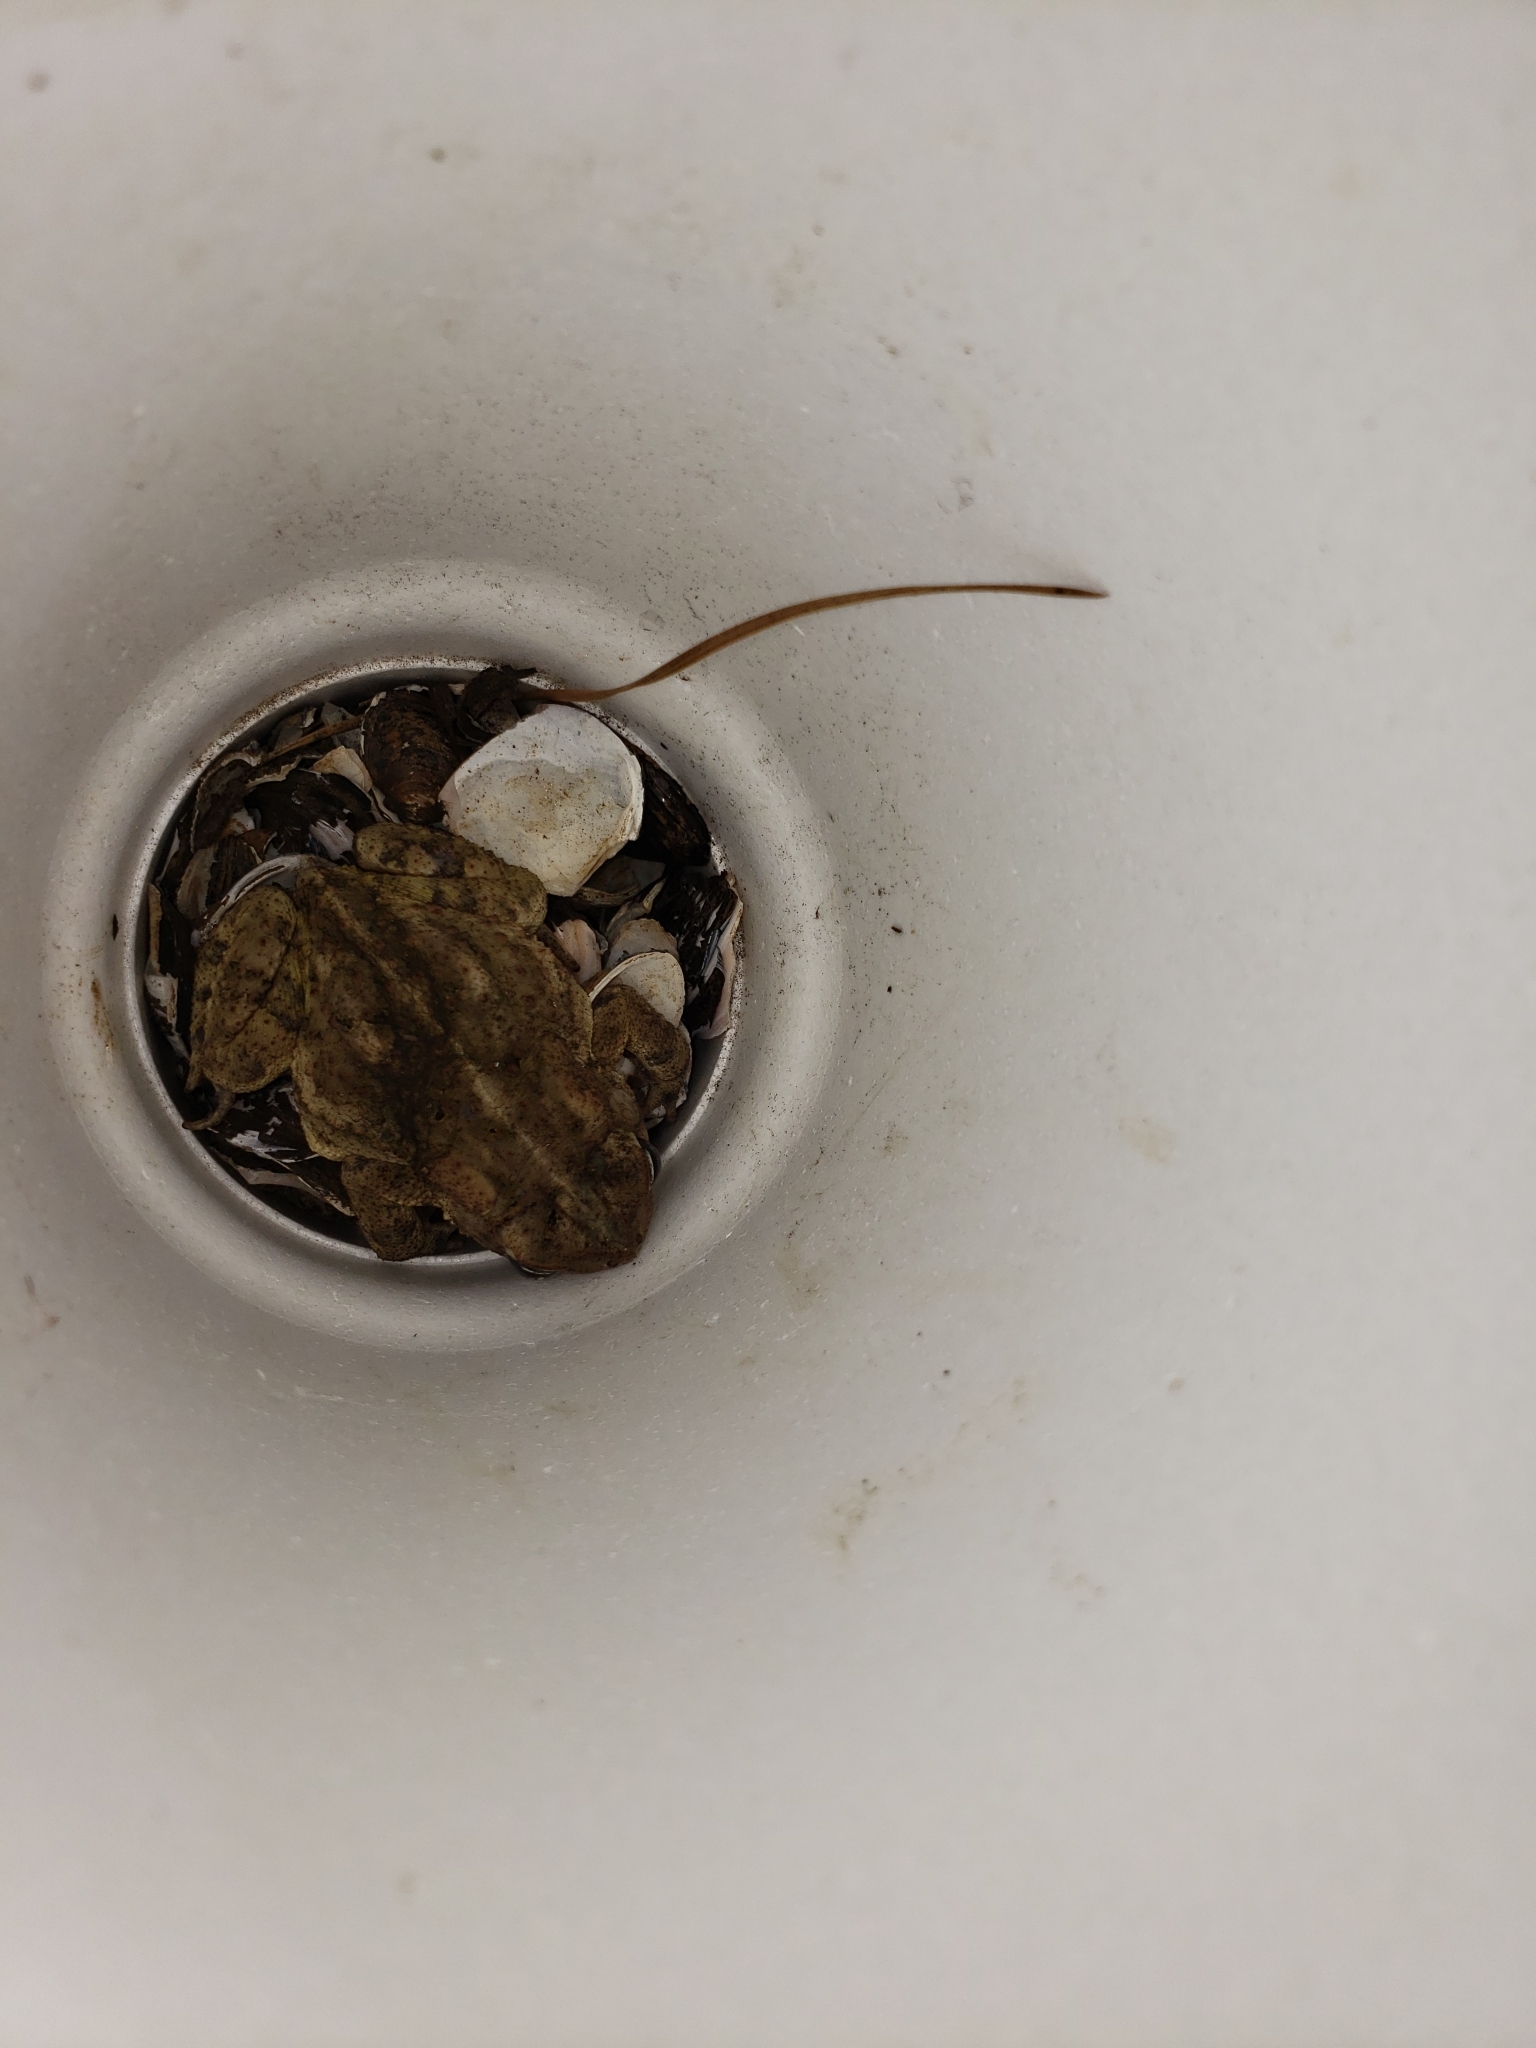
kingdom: Animalia
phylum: Chordata
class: Amphibia
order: Anura
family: Bufonidae
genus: Anaxyrus
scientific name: Anaxyrus fowleri
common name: Fowler's toad
